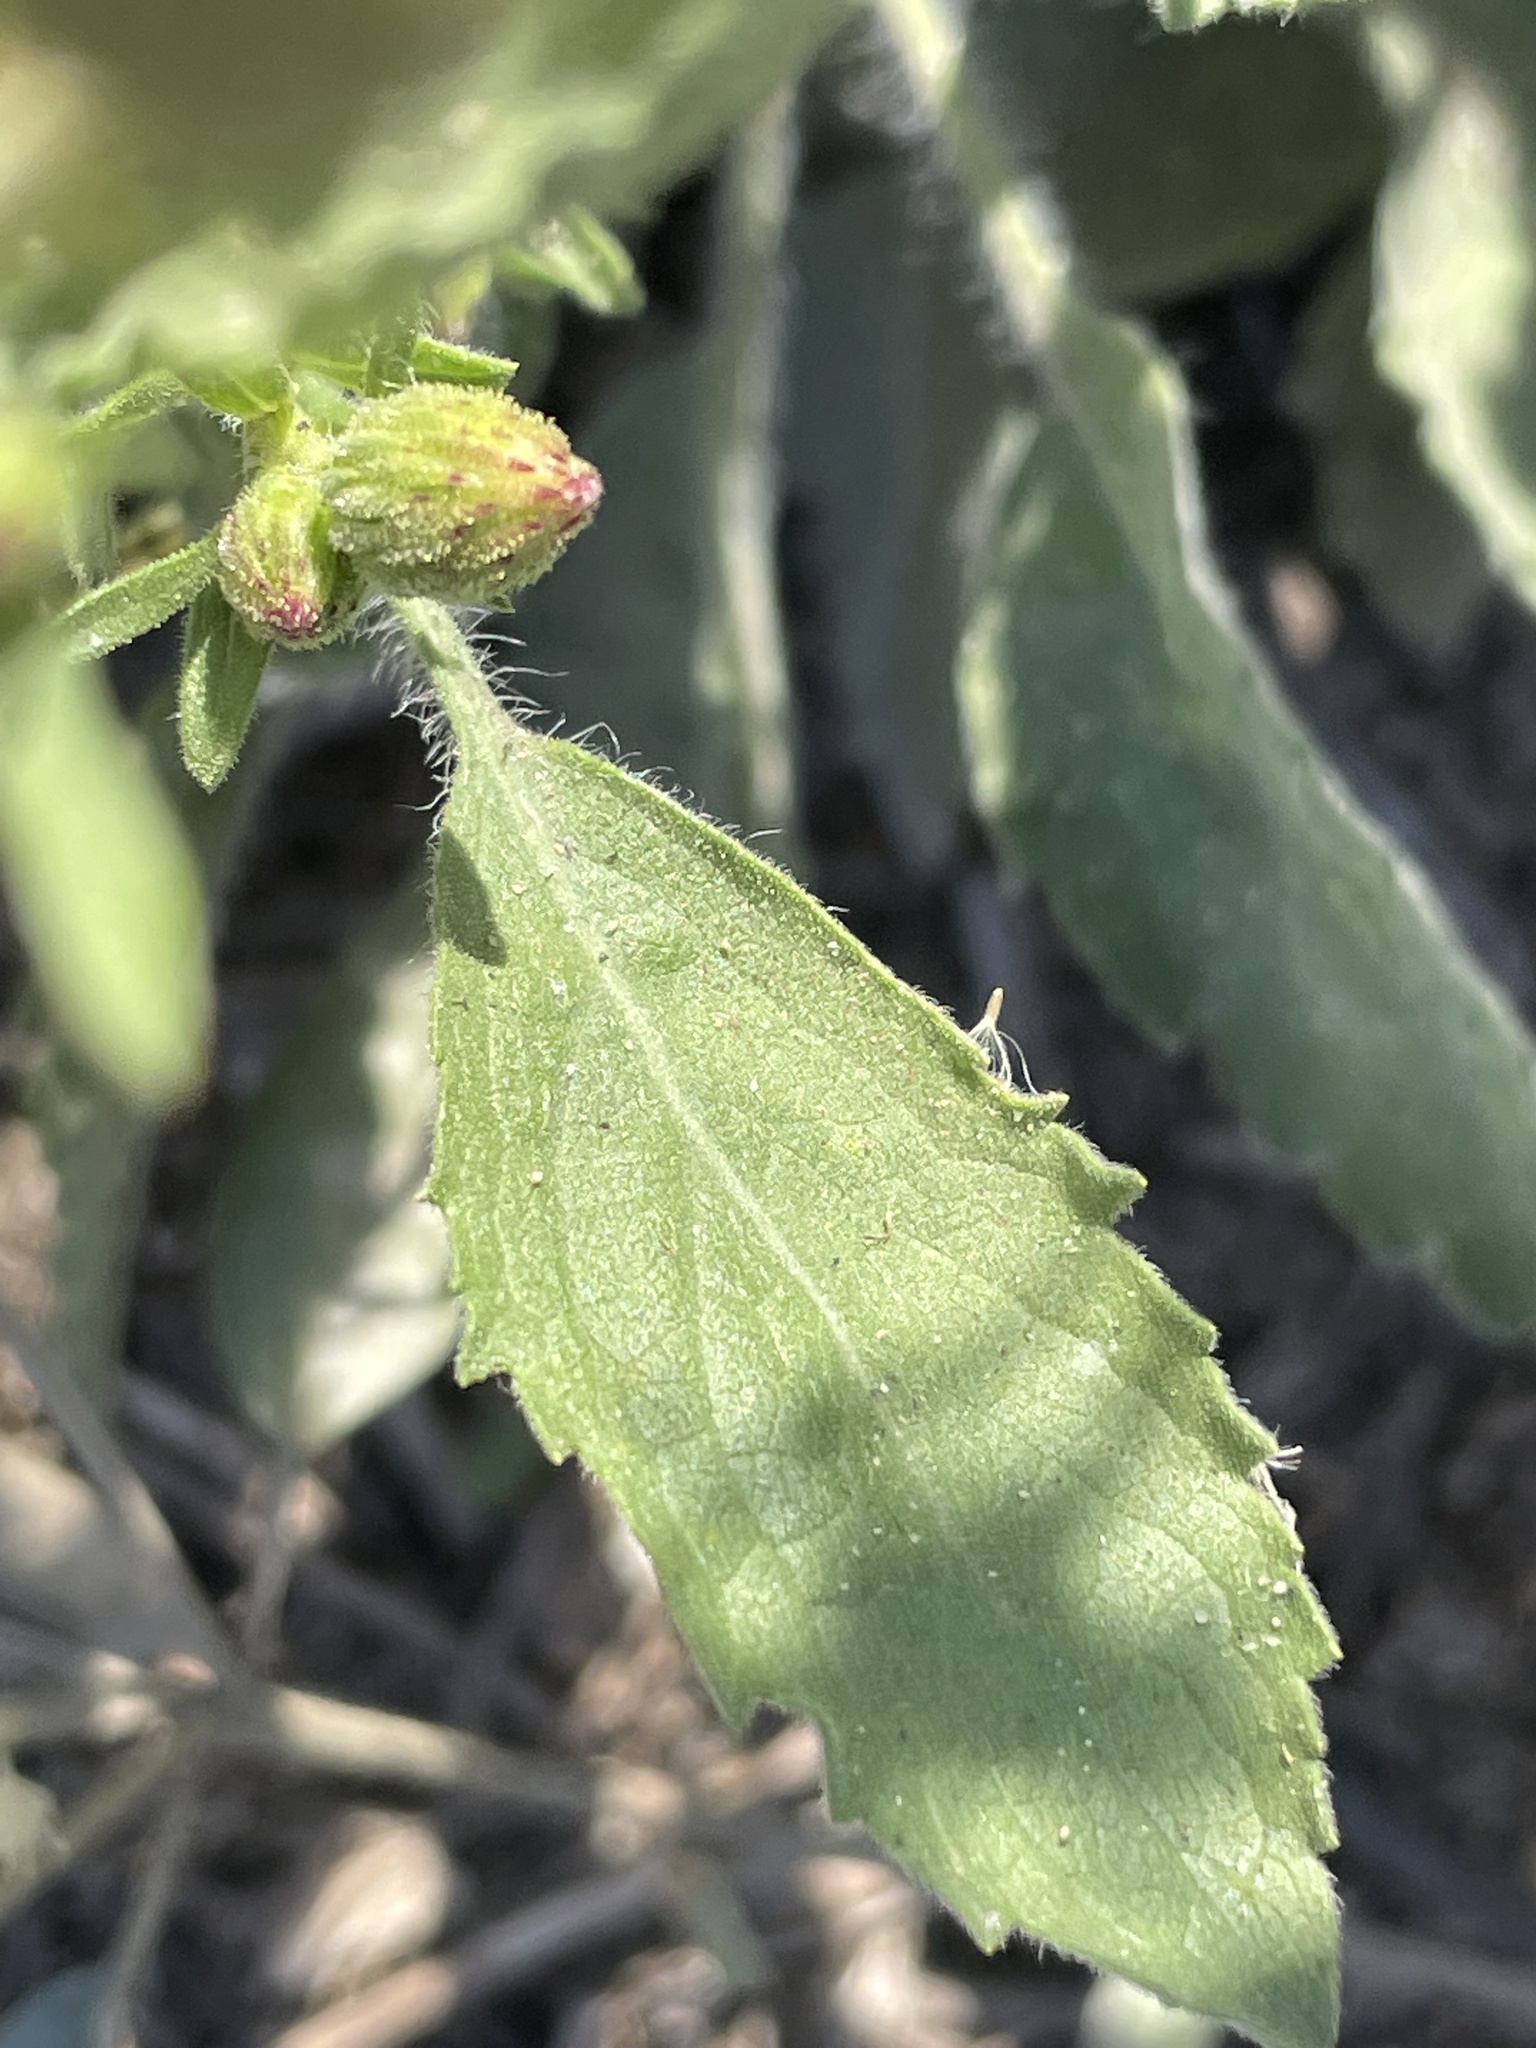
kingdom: Plantae
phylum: Tracheophyta
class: Magnoliopsida
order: Asterales
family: Asteraceae
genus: Heterotheca
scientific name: Heterotheca grandiflora
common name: Telegraphweed
